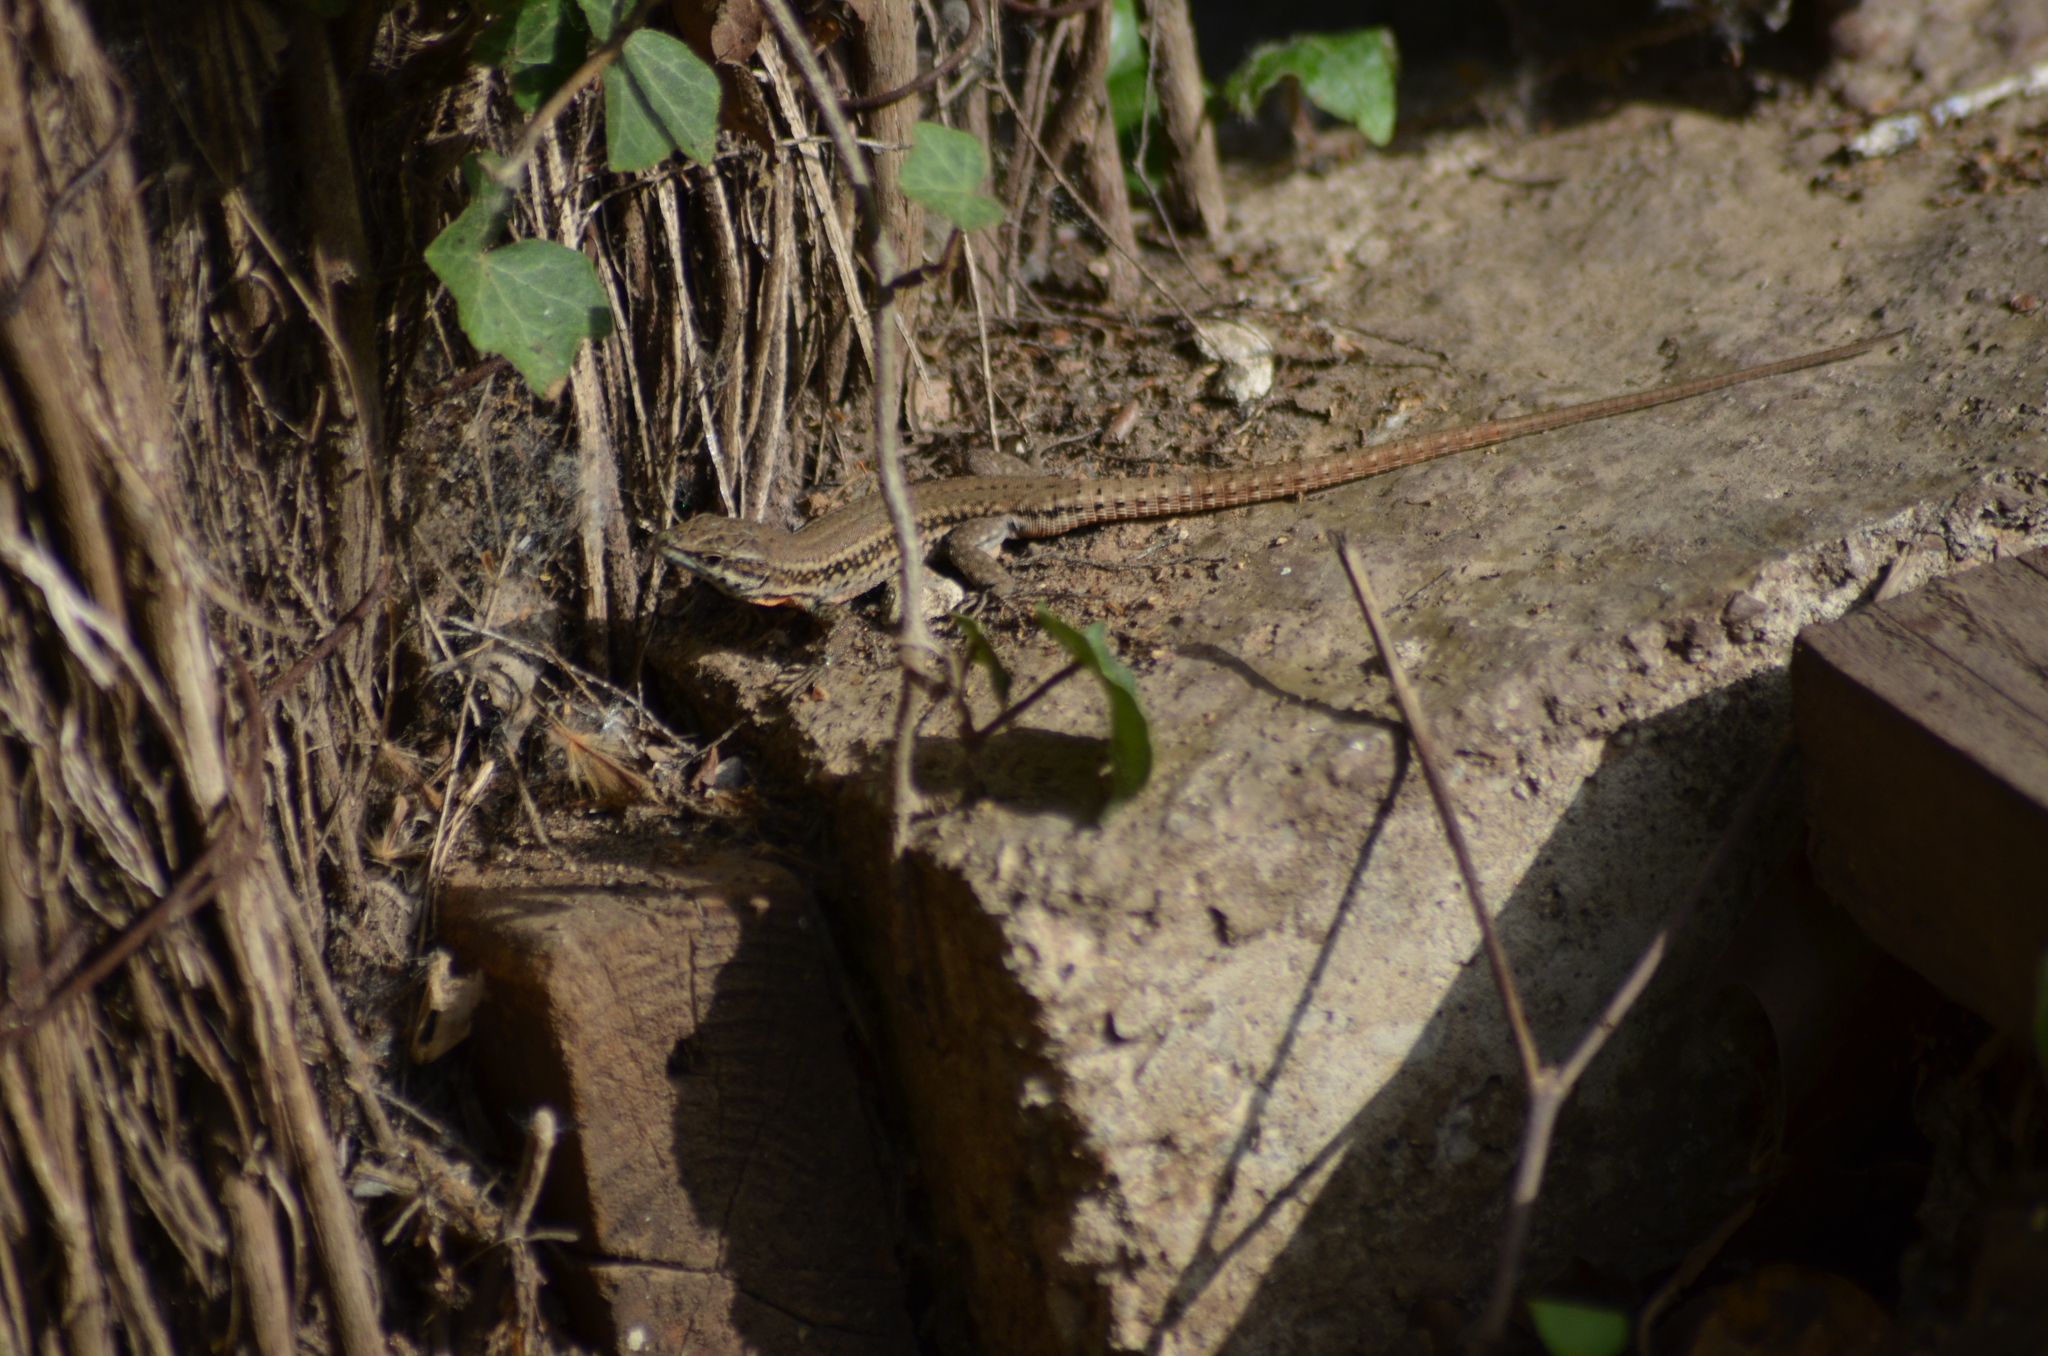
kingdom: Animalia
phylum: Chordata
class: Squamata
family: Lacertidae
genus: Podarcis
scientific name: Podarcis liolepis
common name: Catalonian wall lizard
